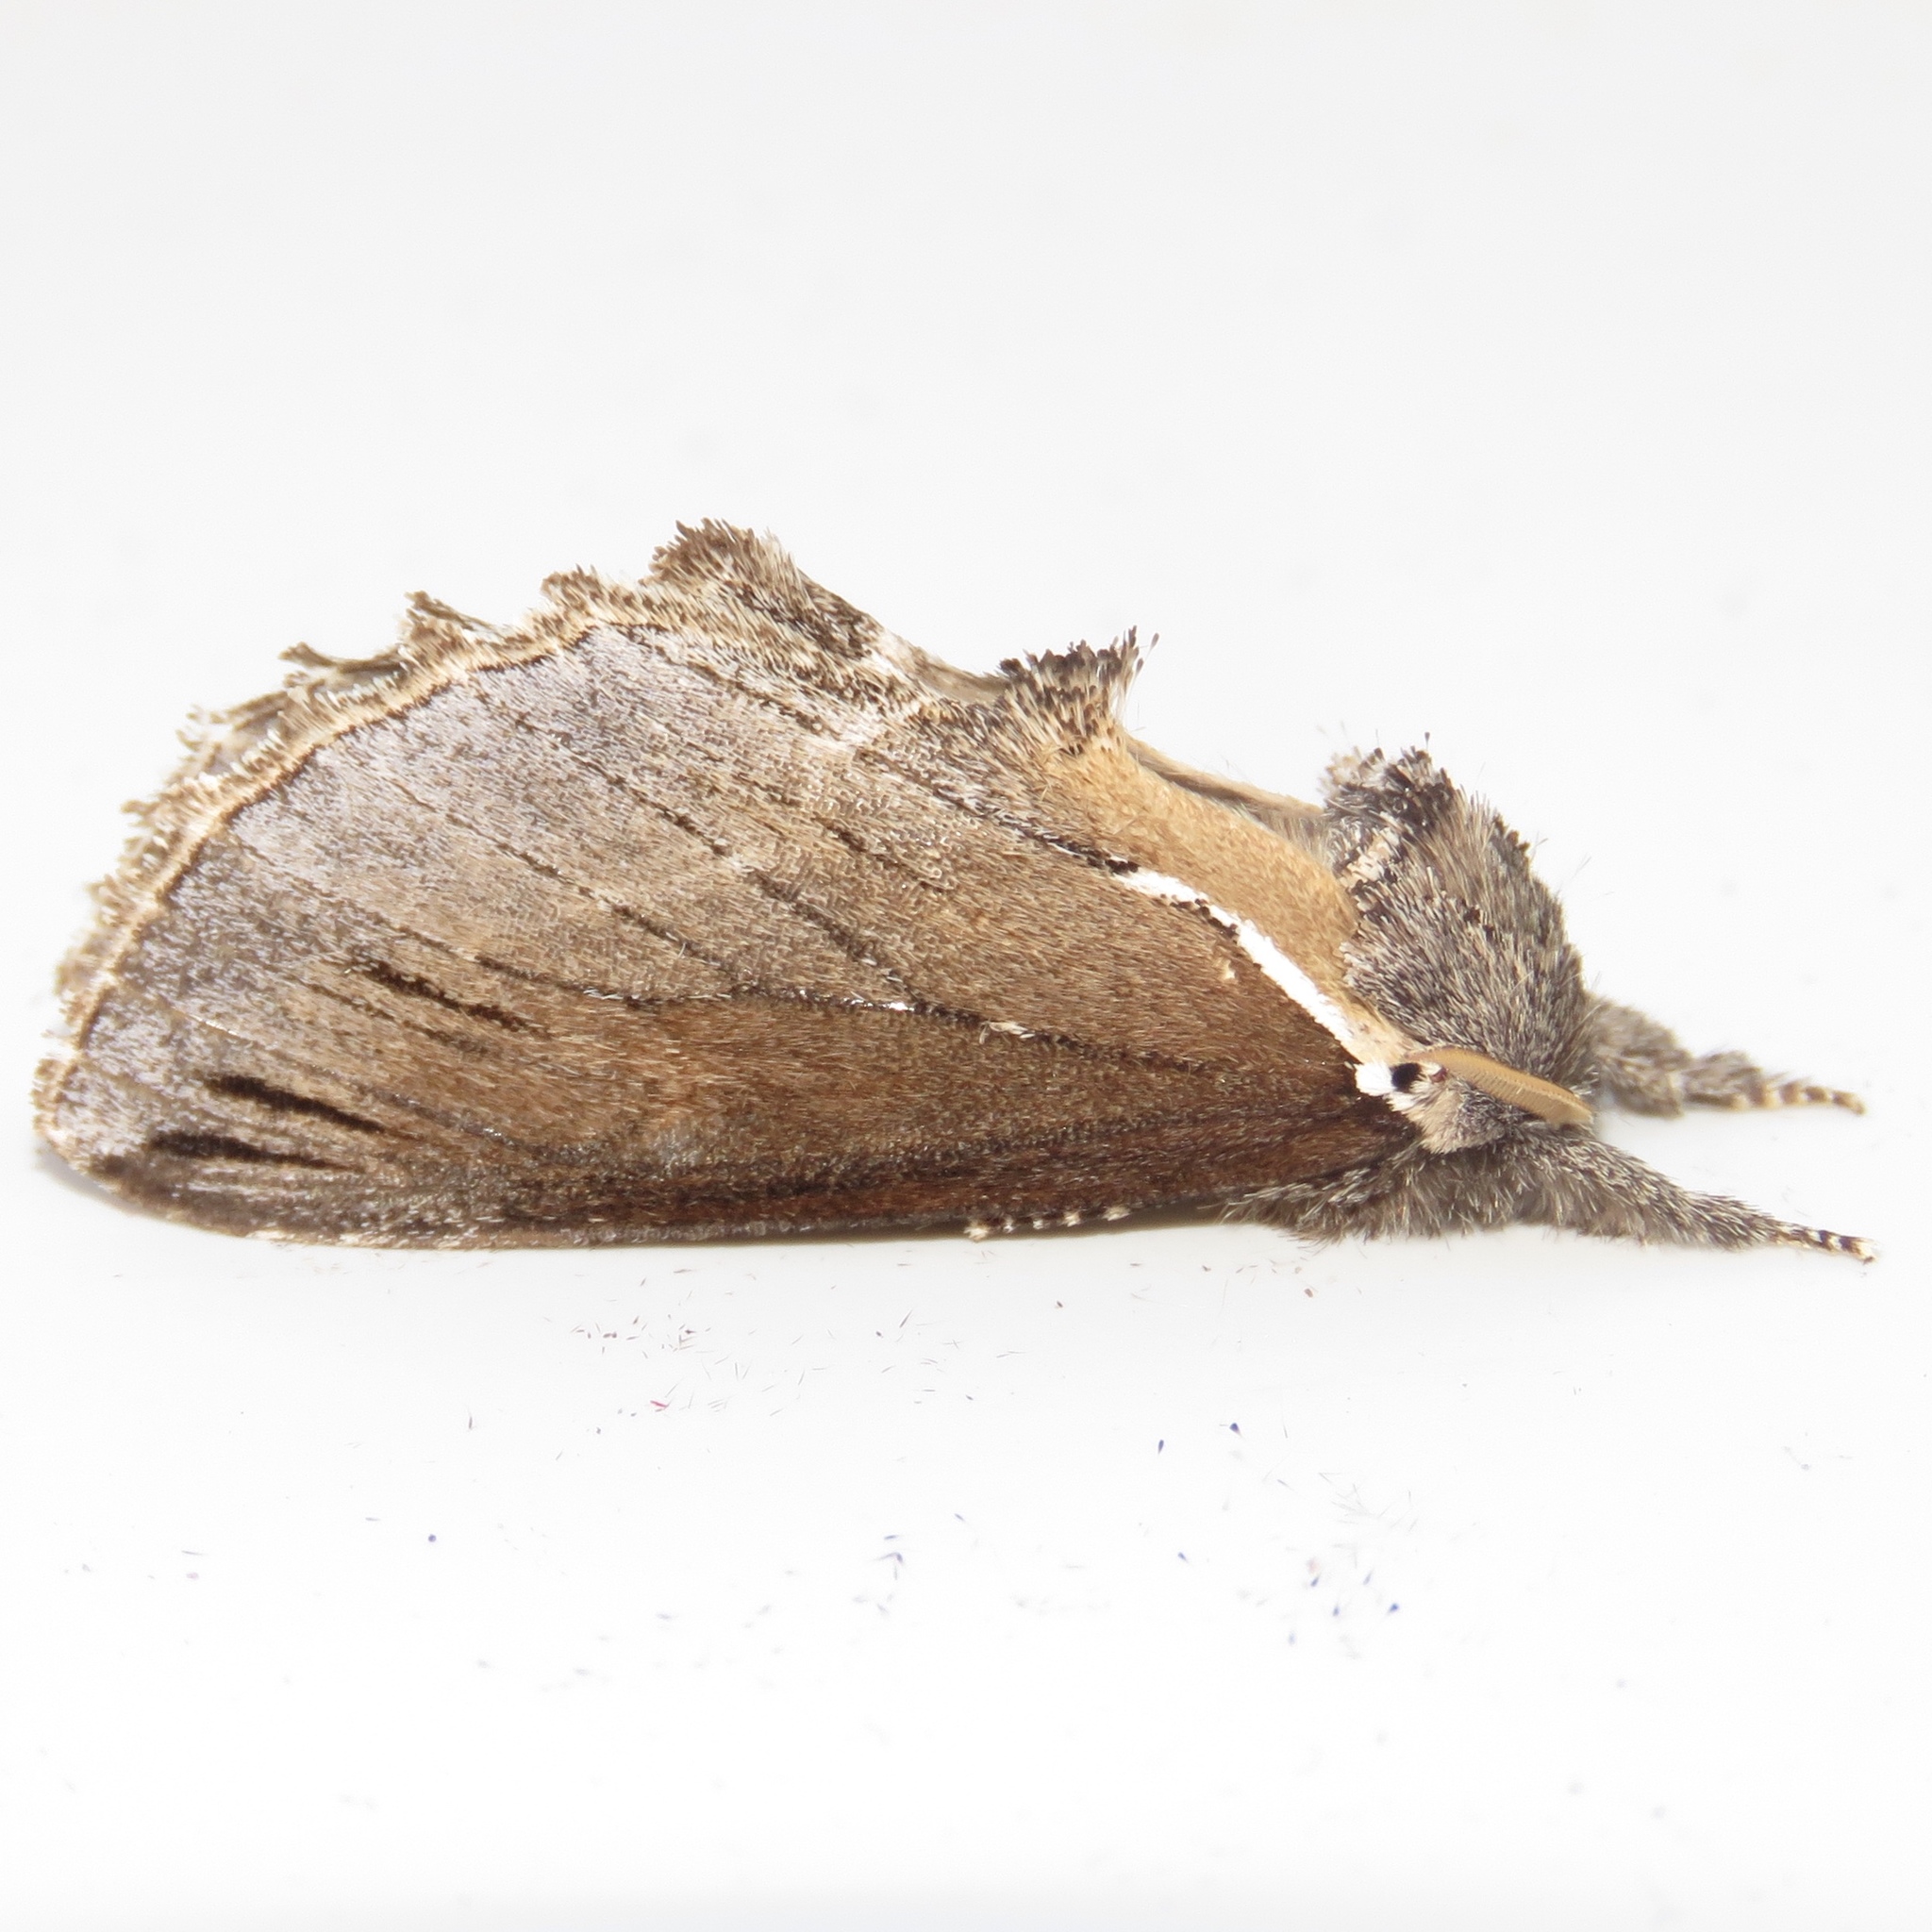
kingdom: Animalia
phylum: Arthropoda
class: Insecta
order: Lepidoptera
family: Notodontidae
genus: Pheosidea
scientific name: Pheosidea elegans
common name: Elegant prominent
